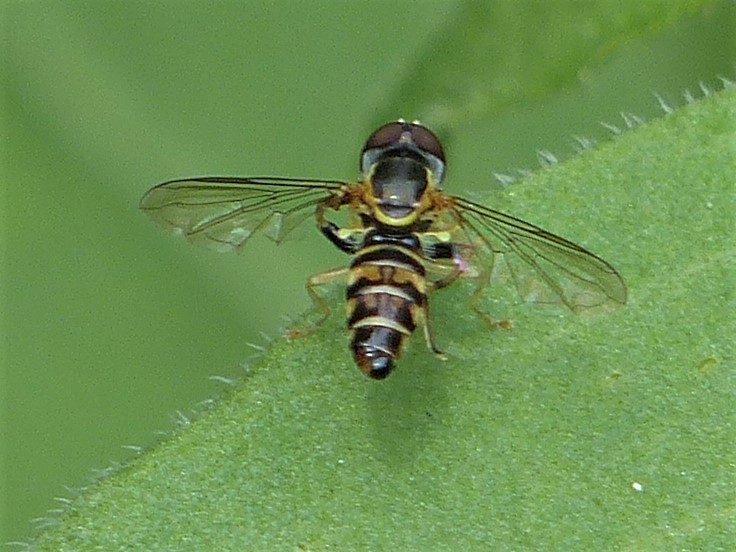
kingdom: Animalia
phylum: Arthropoda
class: Insecta
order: Diptera
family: Syrphidae
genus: Toxomerus
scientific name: Toxomerus geminatus
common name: Eastern calligrapher
